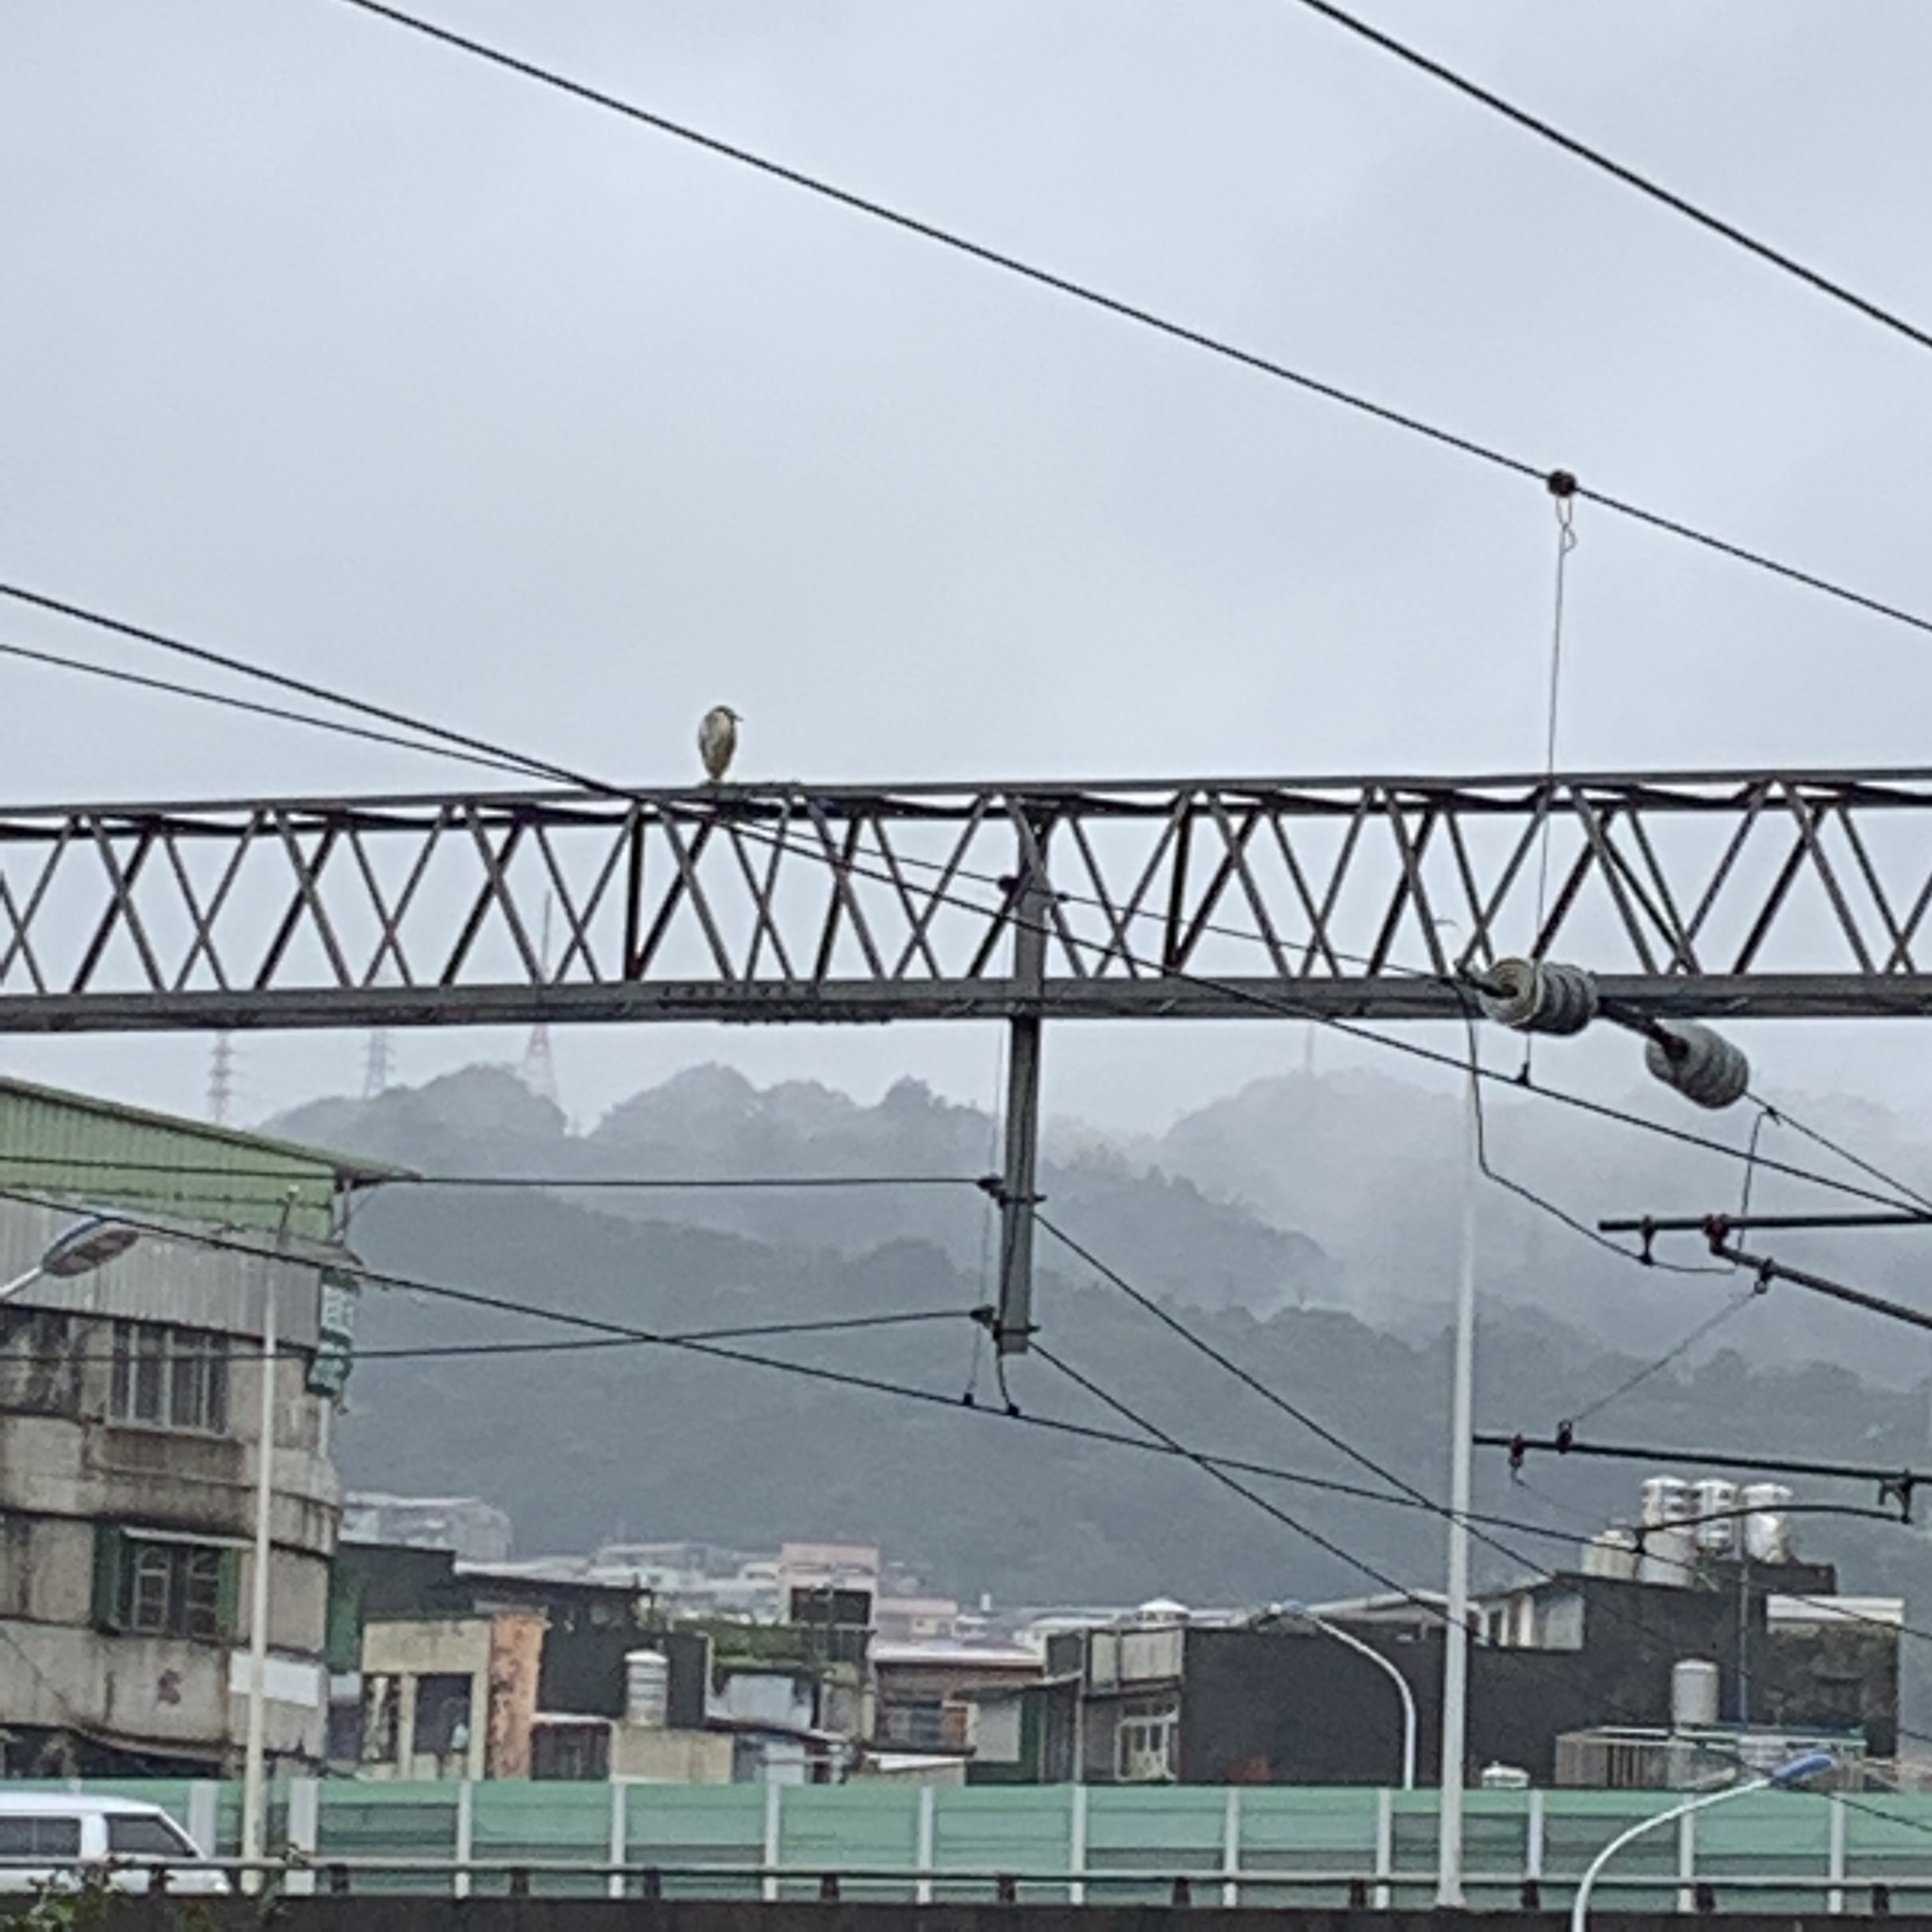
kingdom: Animalia
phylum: Chordata
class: Aves
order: Pelecaniformes
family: Ardeidae
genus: Nycticorax
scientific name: Nycticorax nycticorax
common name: Black-crowned night heron
